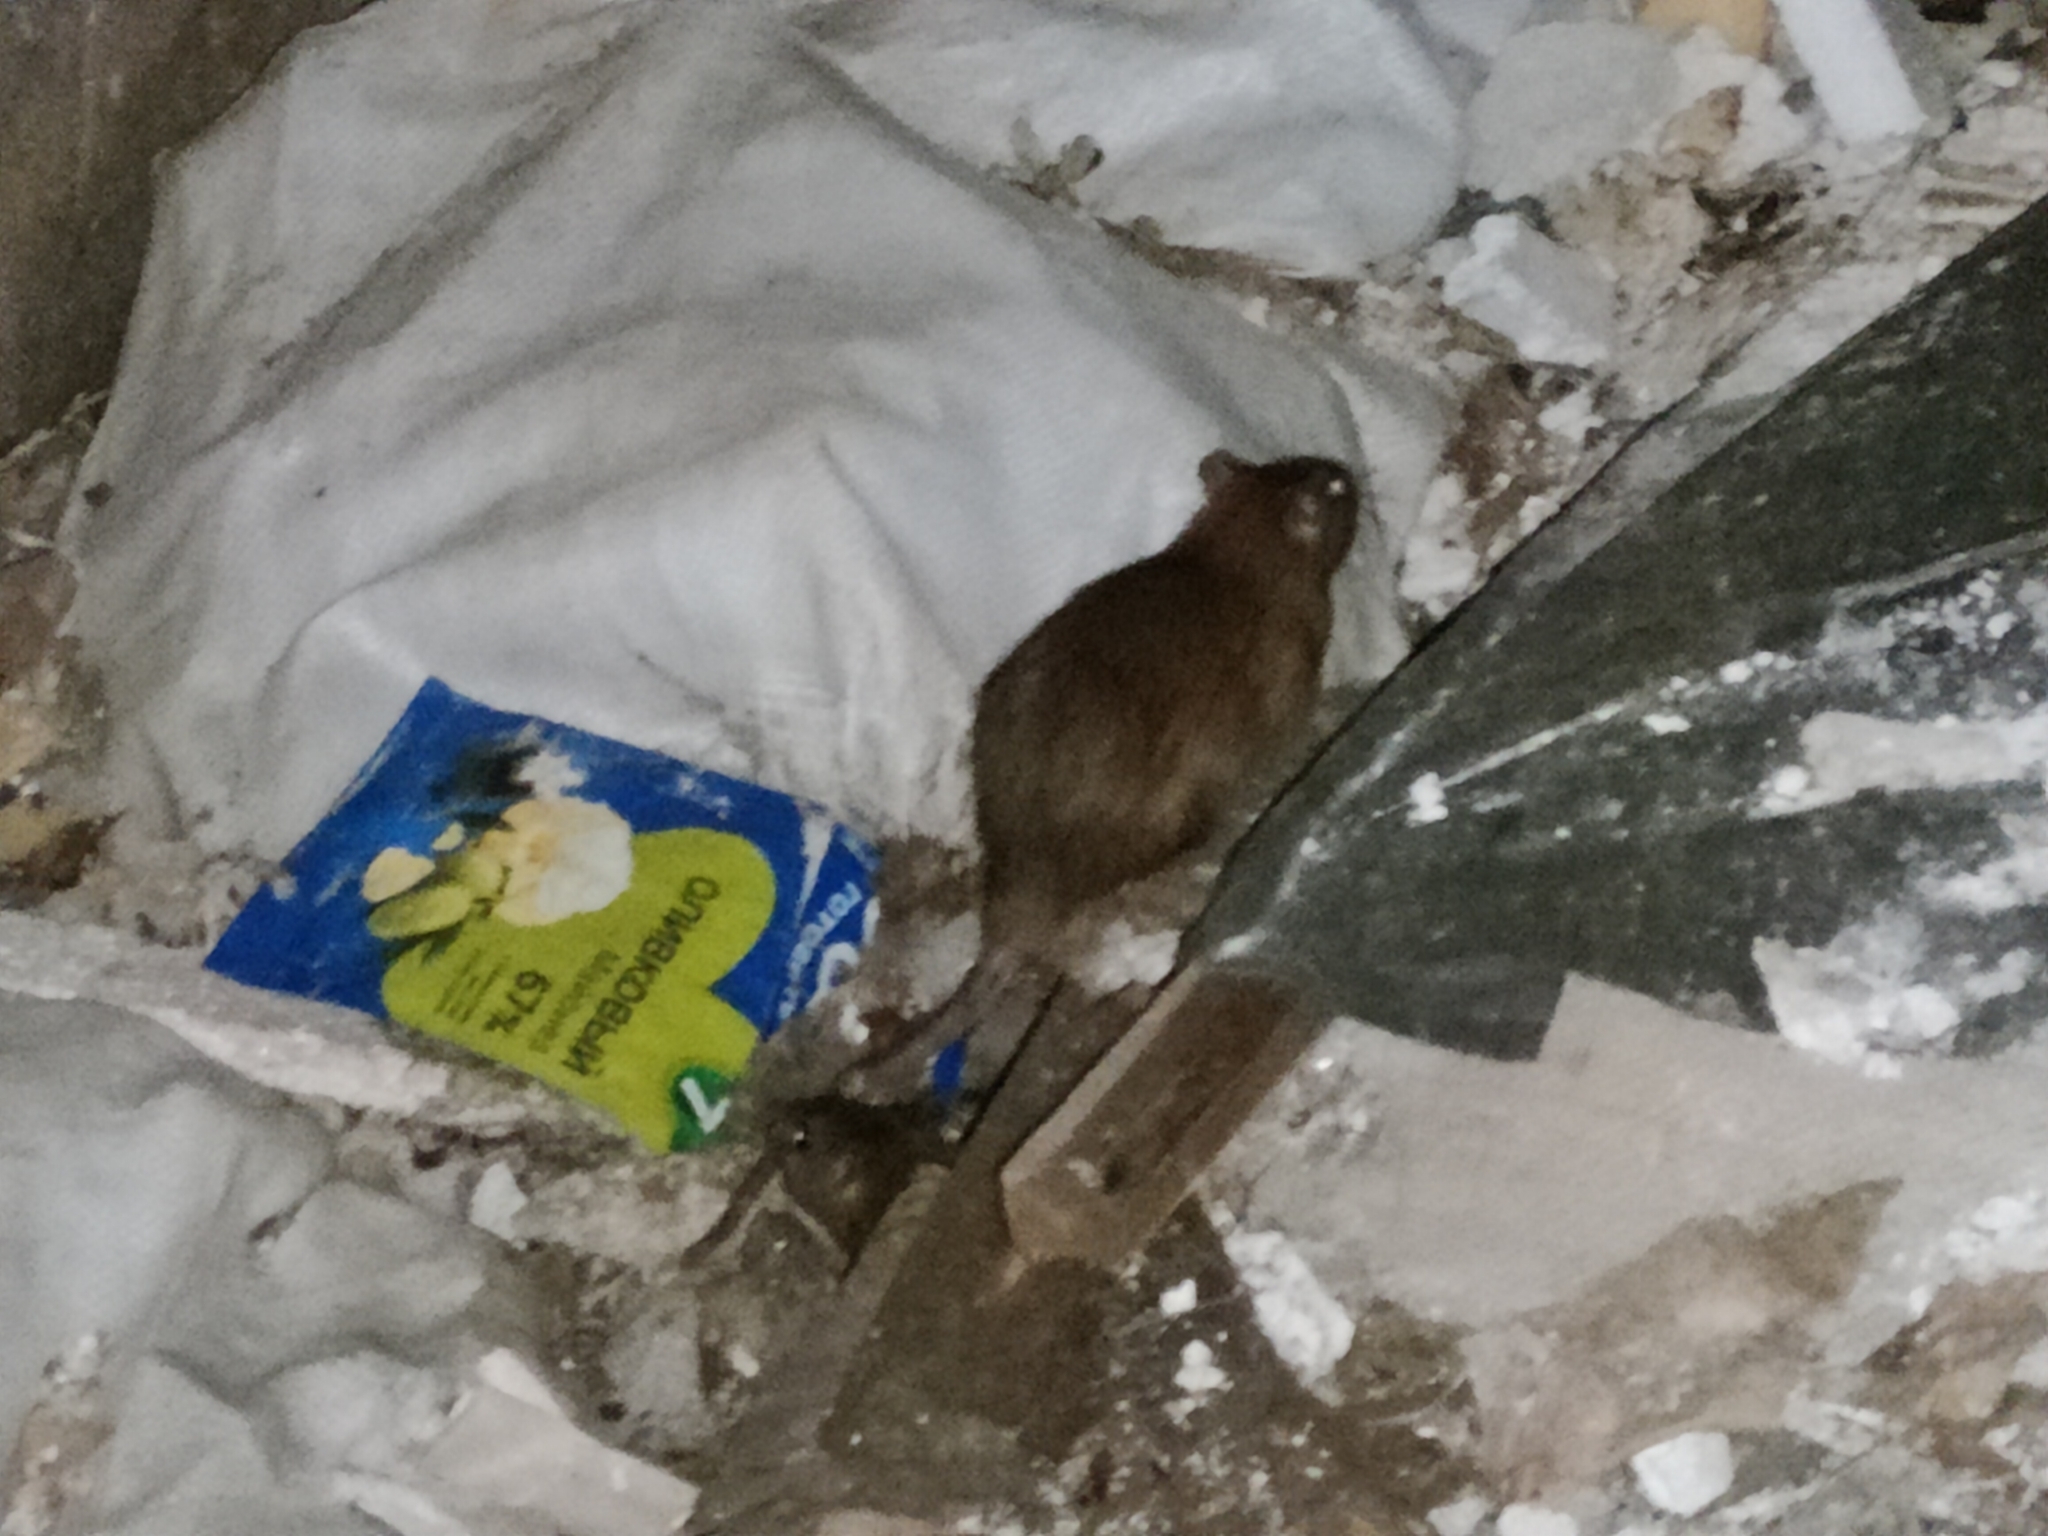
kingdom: Animalia
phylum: Chordata
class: Mammalia
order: Rodentia
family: Muridae
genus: Rattus
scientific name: Rattus norvegicus
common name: Brown rat
